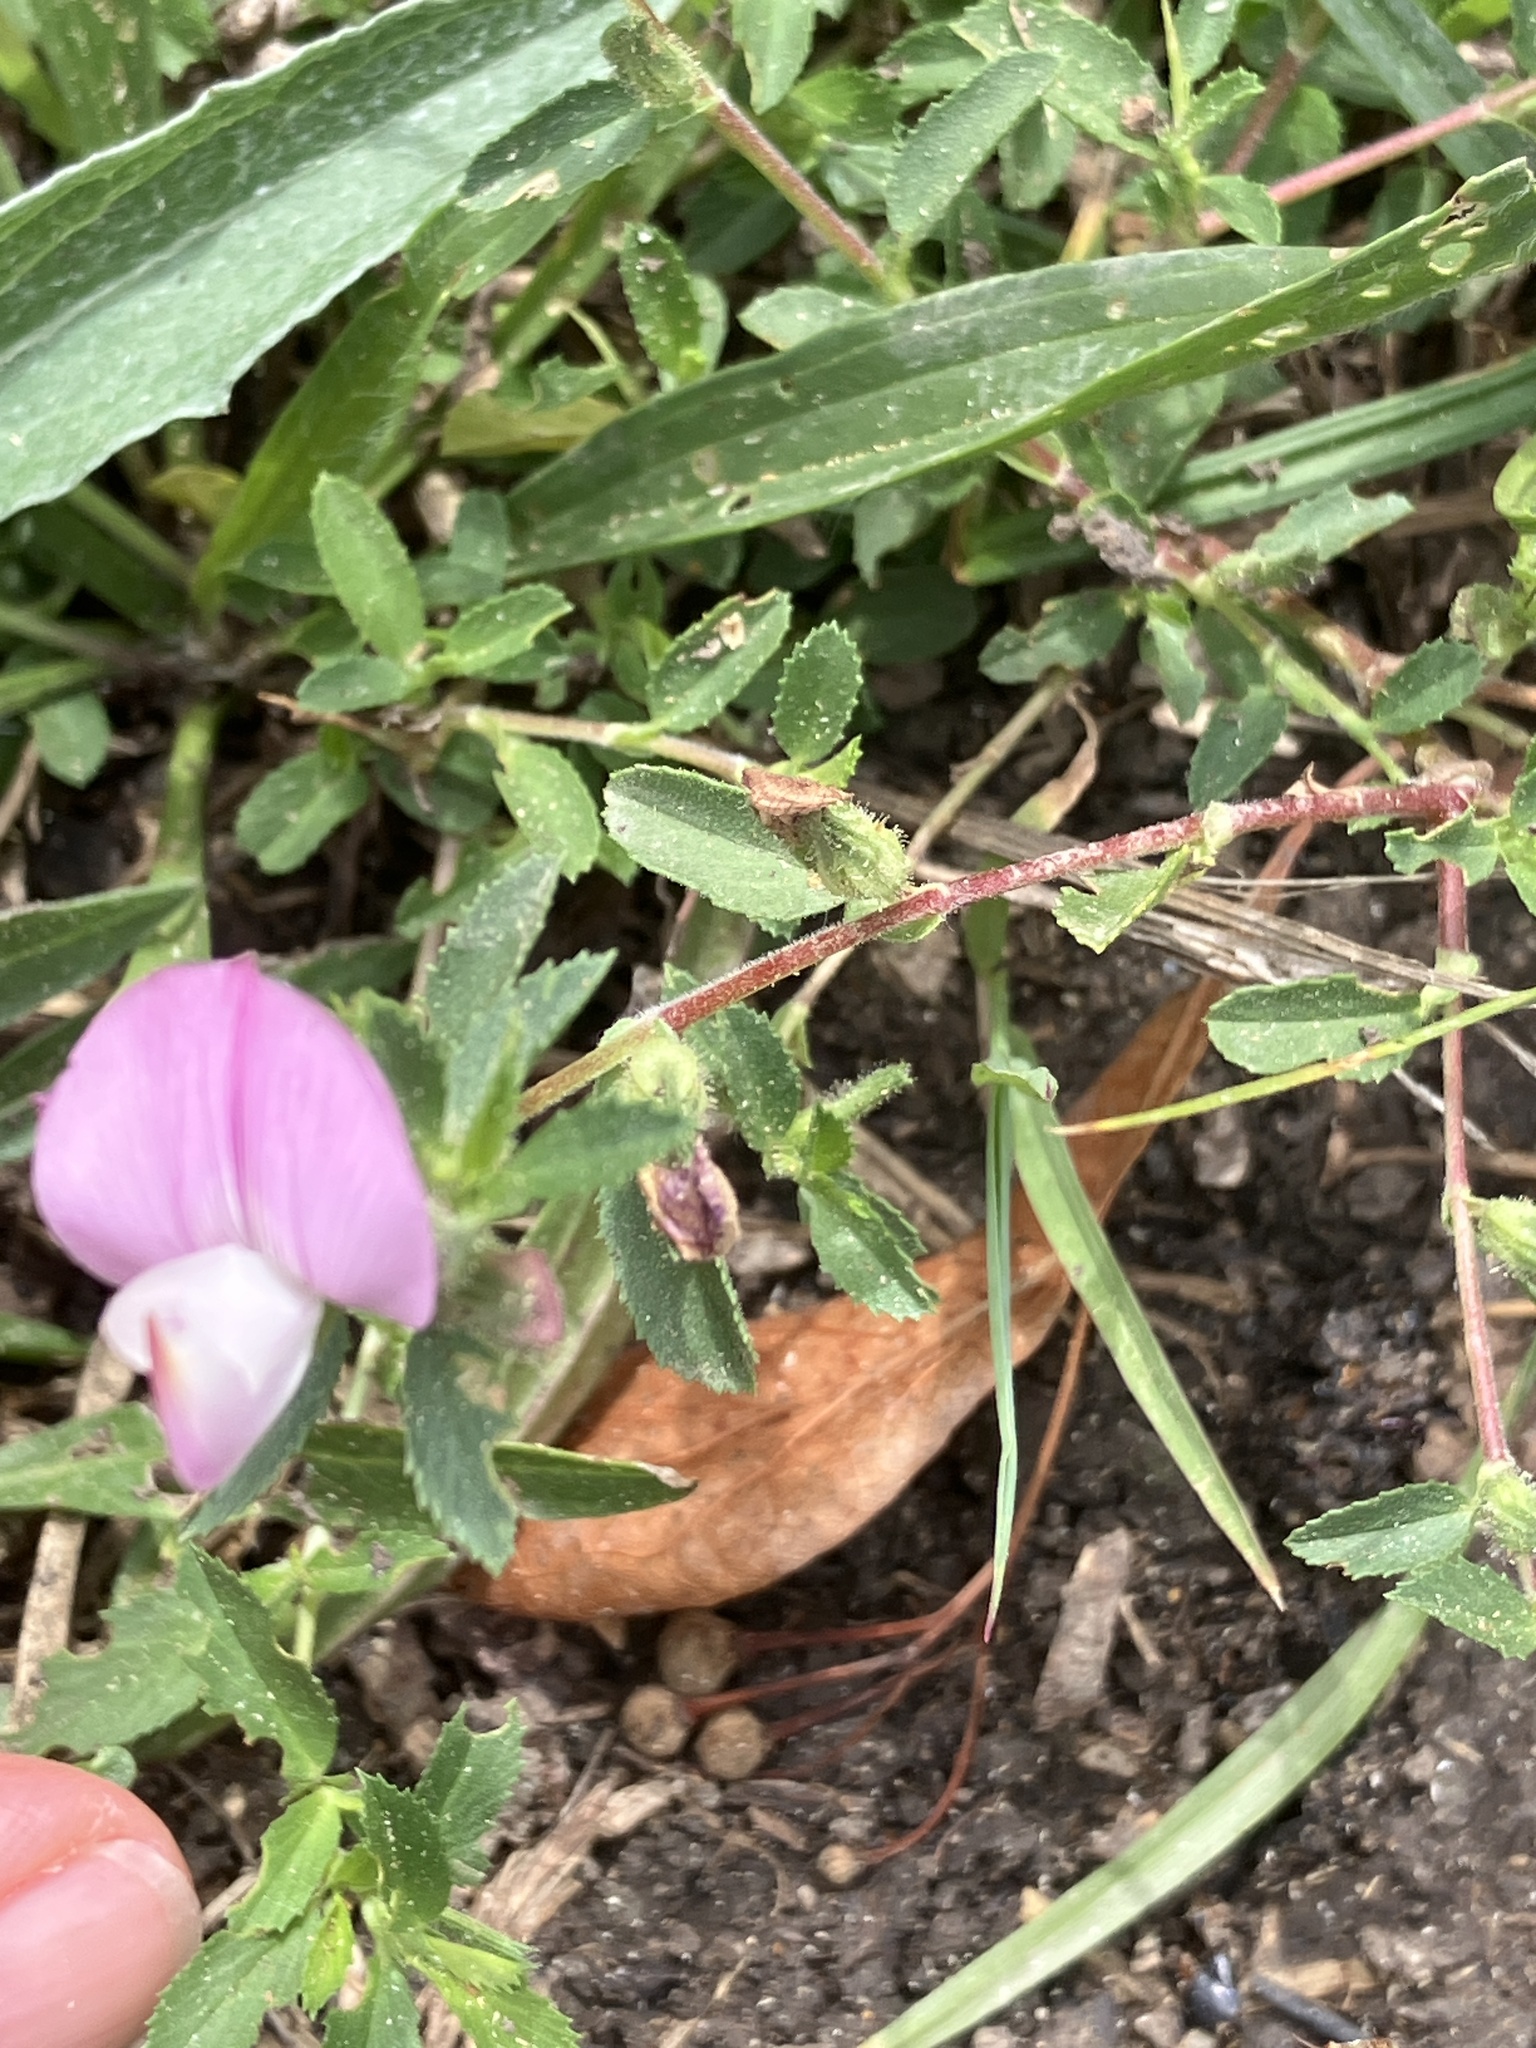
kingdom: Plantae
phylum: Tracheophyta
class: Magnoliopsida
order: Fabales
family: Fabaceae
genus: Ononis
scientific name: Ononis spinosa
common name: Spiny restharrow
